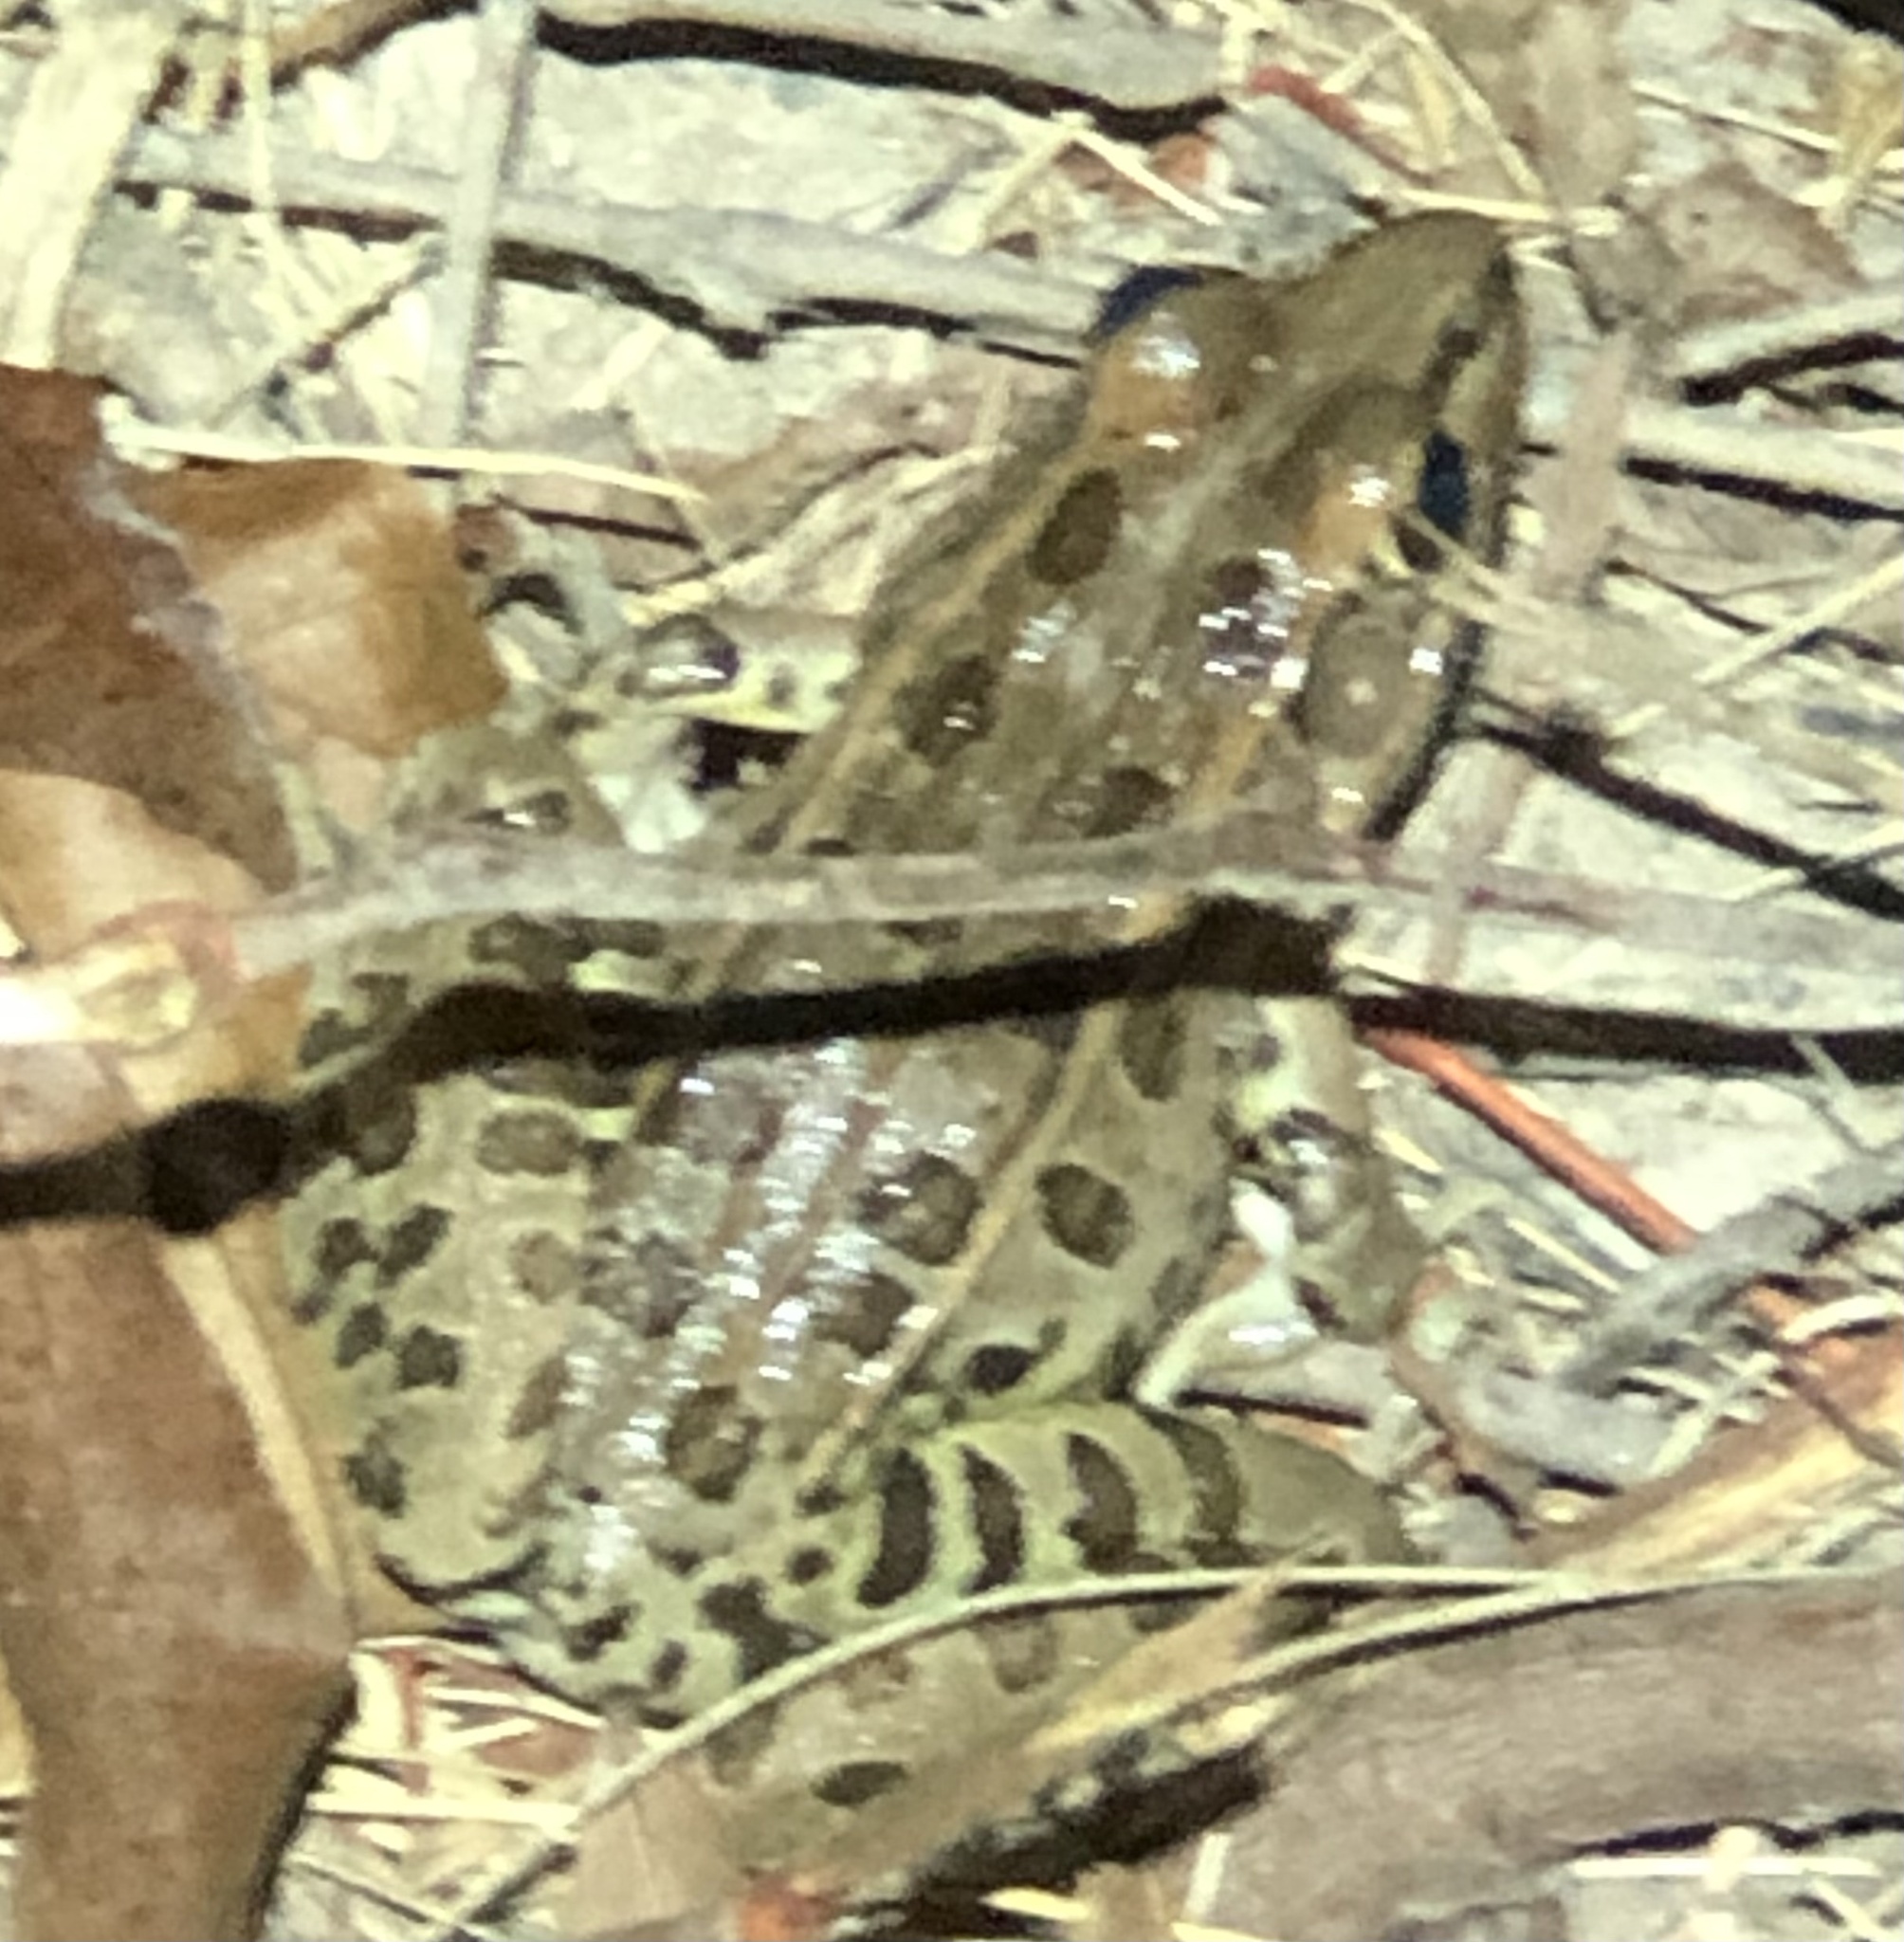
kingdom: Animalia
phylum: Chordata
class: Amphibia
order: Anura
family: Ranidae
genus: Lithobates
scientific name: Lithobates sphenocephalus
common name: Southern leopard frog
